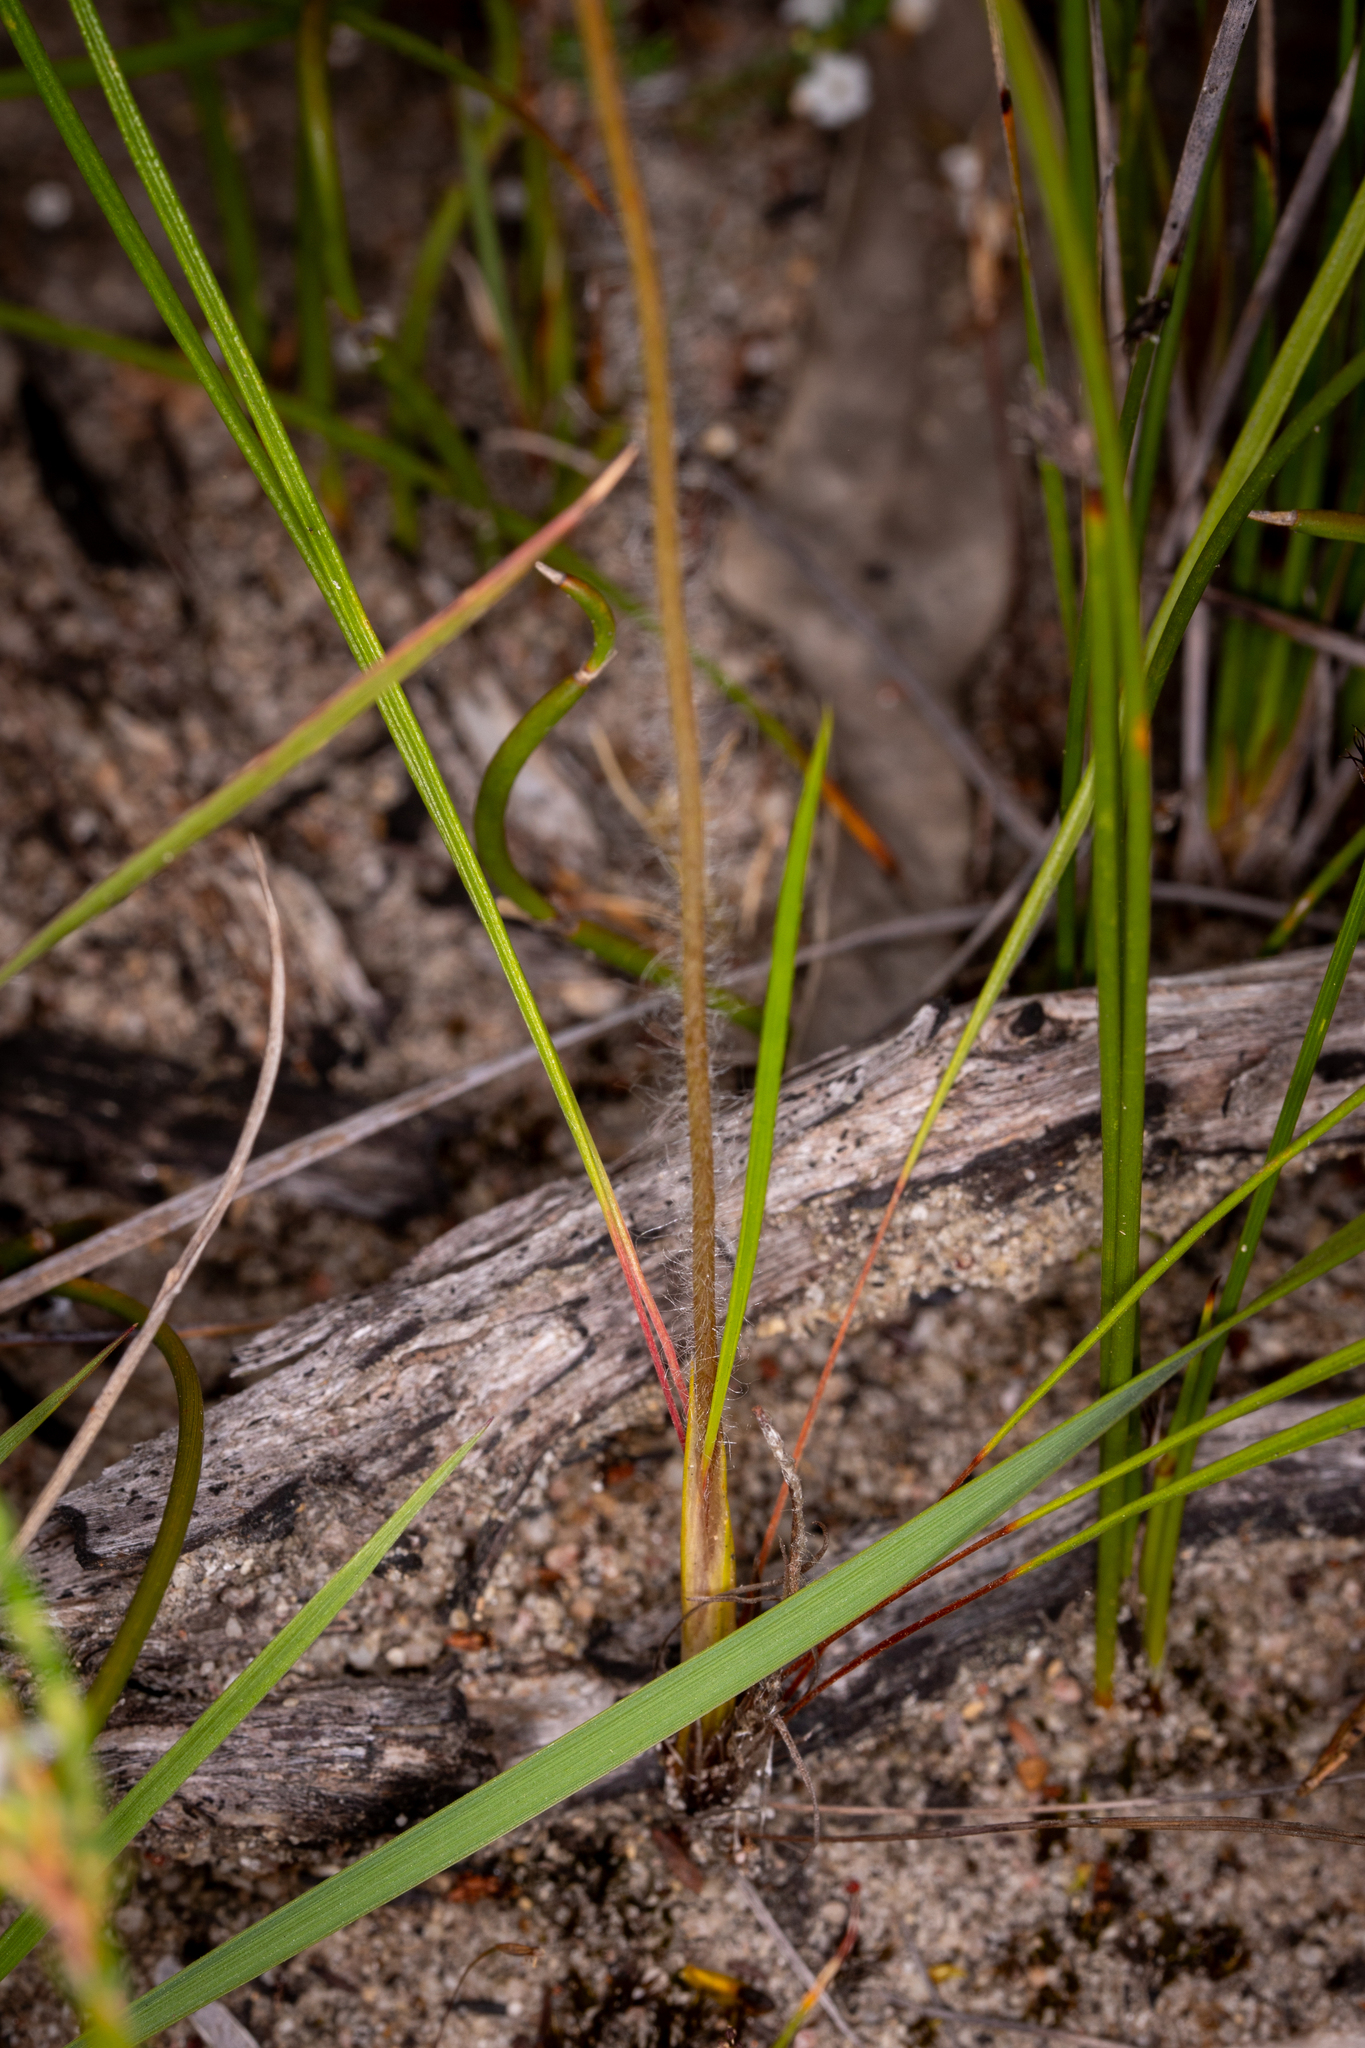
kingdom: Plantae
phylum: Tracheophyta
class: Magnoliopsida
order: Asterales
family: Stylidiaceae
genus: Stylidium
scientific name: Stylidium hirsutum
